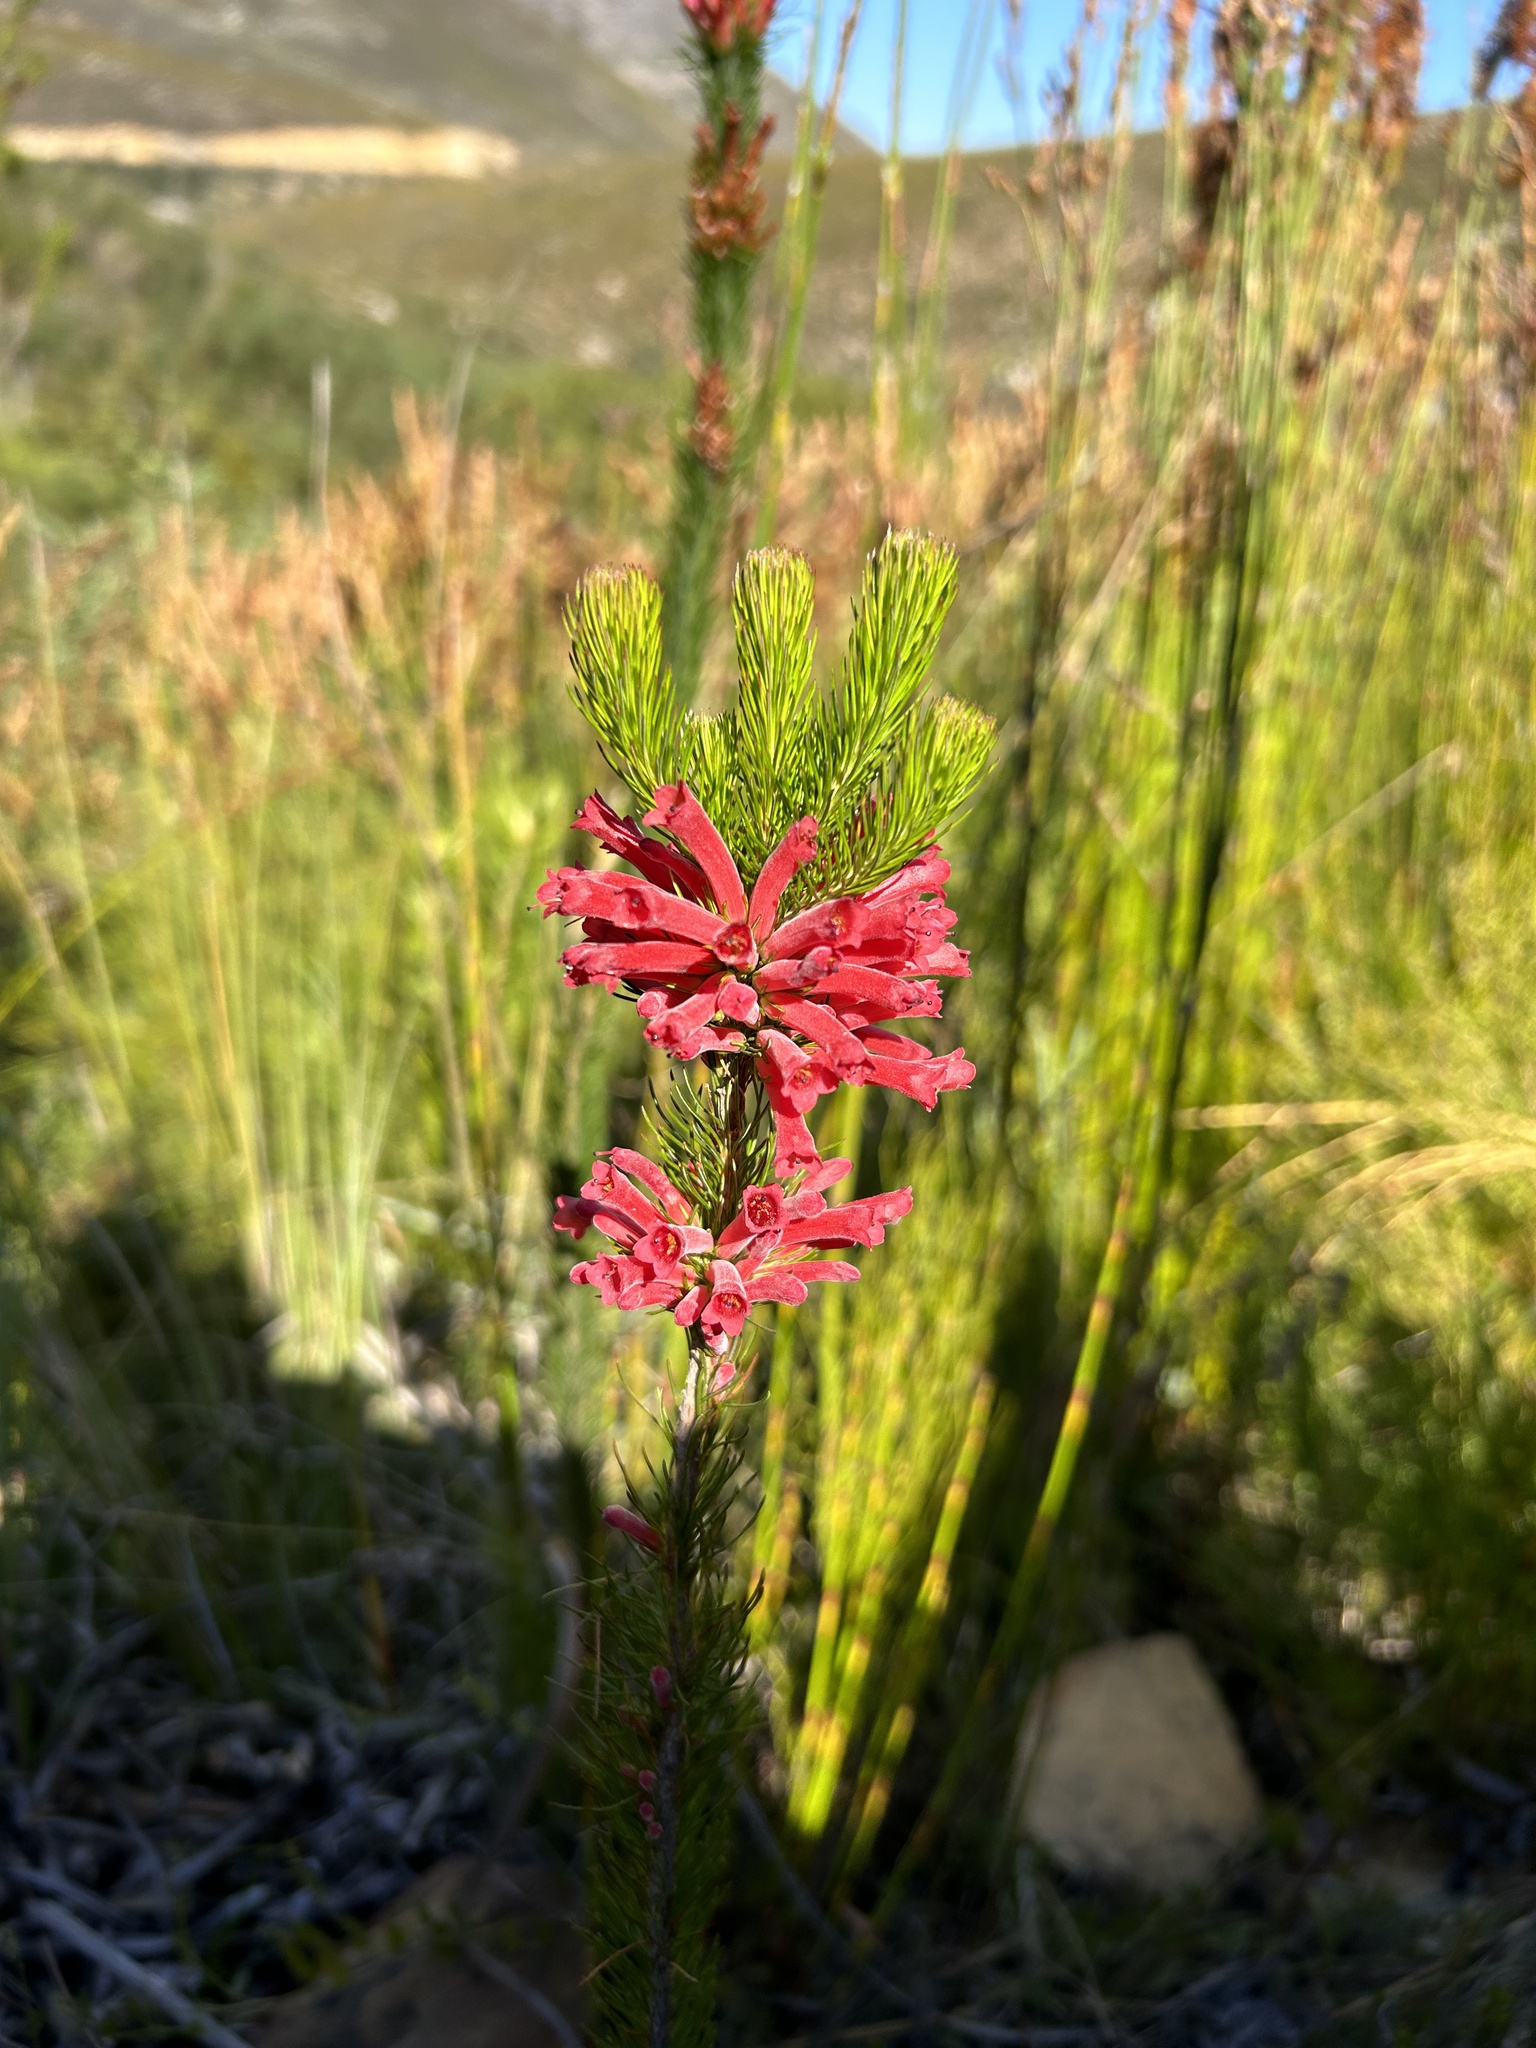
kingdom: Plantae
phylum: Tracheophyta
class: Magnoliopsida
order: Ericales
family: Ericaceae
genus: Erica
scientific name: Erica vestita
